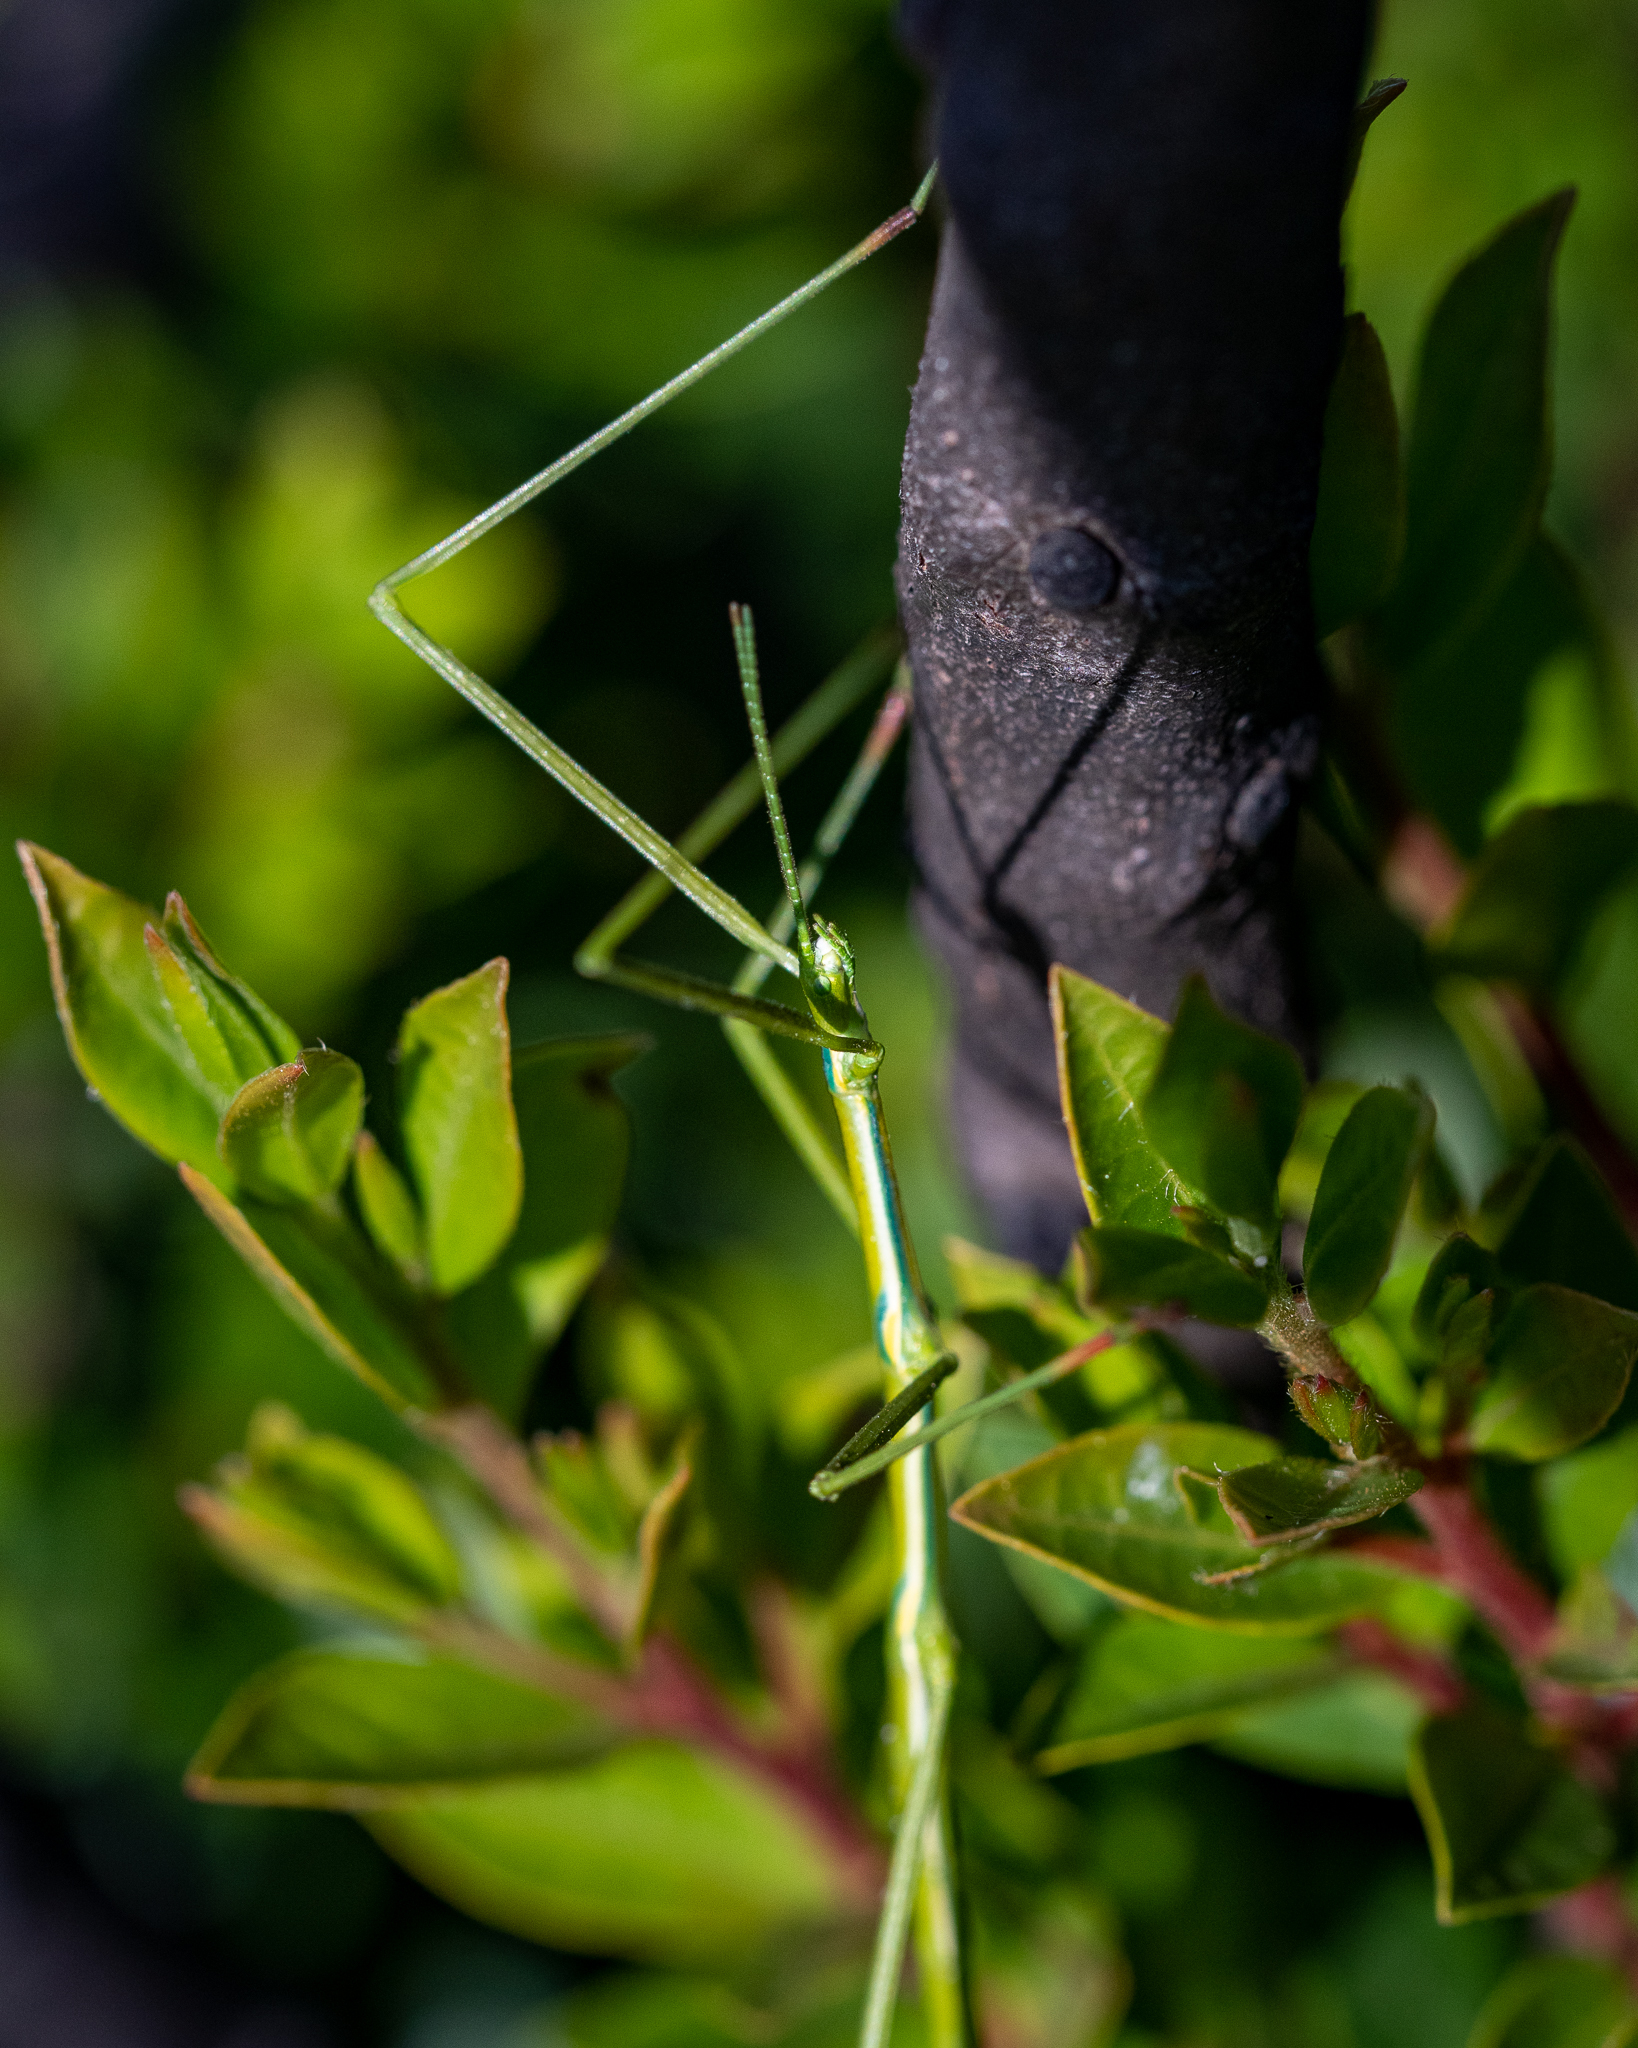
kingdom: Animalia
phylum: Arthropoda
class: Insecta
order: Phasmida
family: Bacillidae
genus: Phalces
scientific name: Phalces brevis
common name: Cape stick insect
